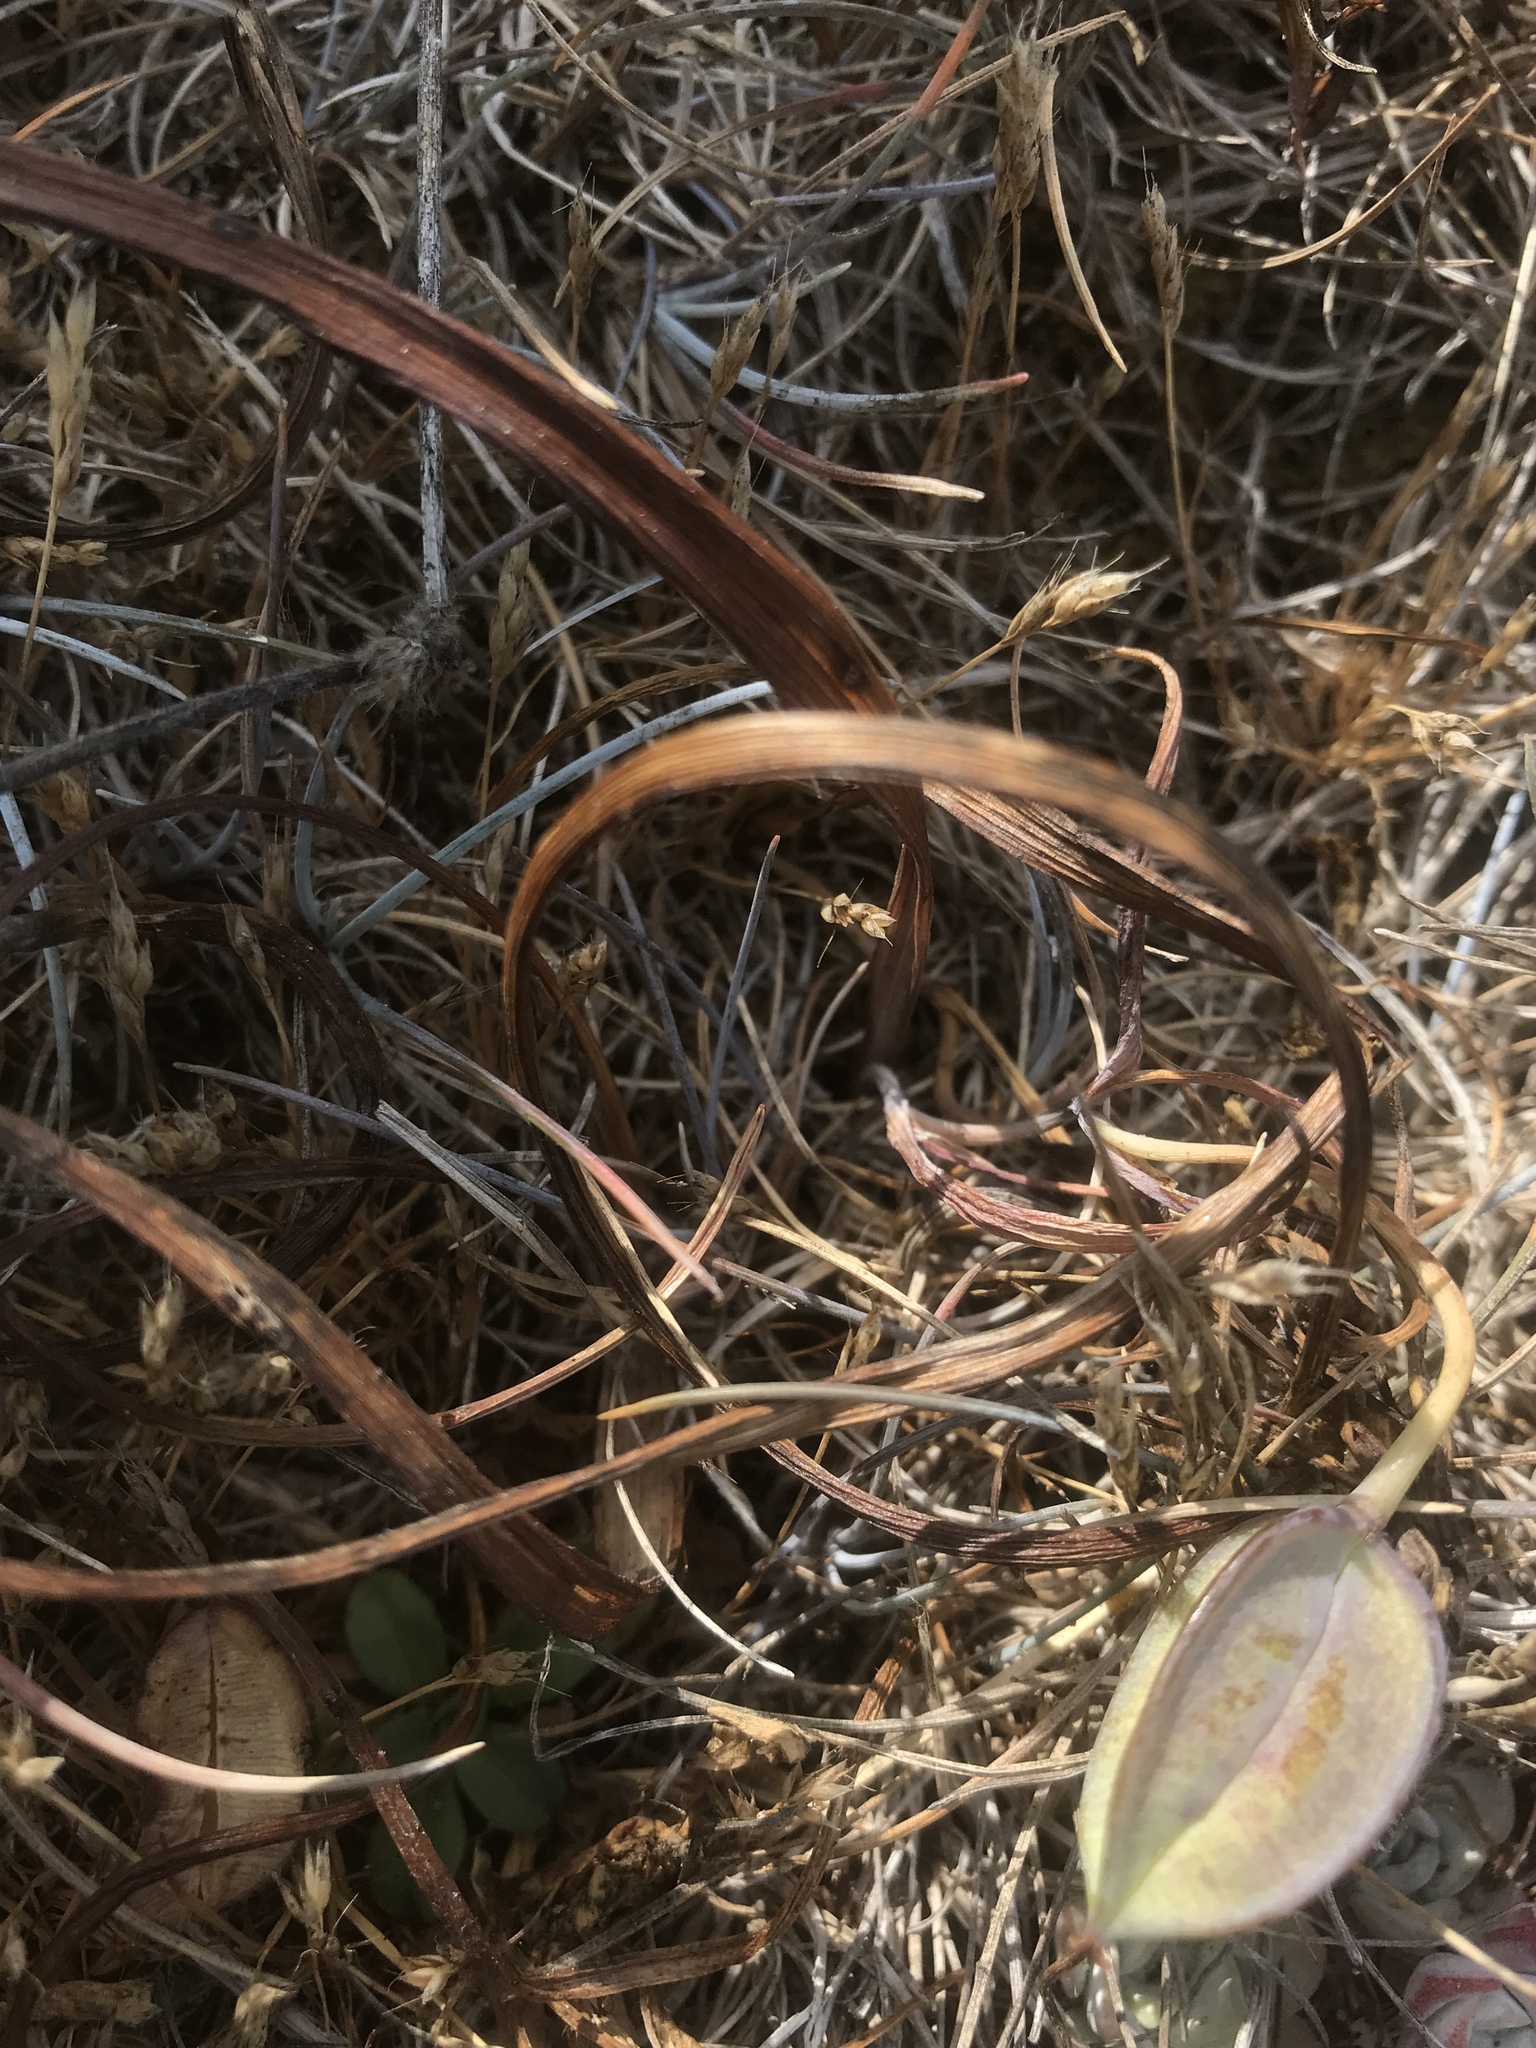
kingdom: Plantae
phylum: Tracheophyta
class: Liliopsida
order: Liliales
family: Liliaceae
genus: Calochortus
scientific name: Calochortus tolmiei
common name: Pussy-ears
